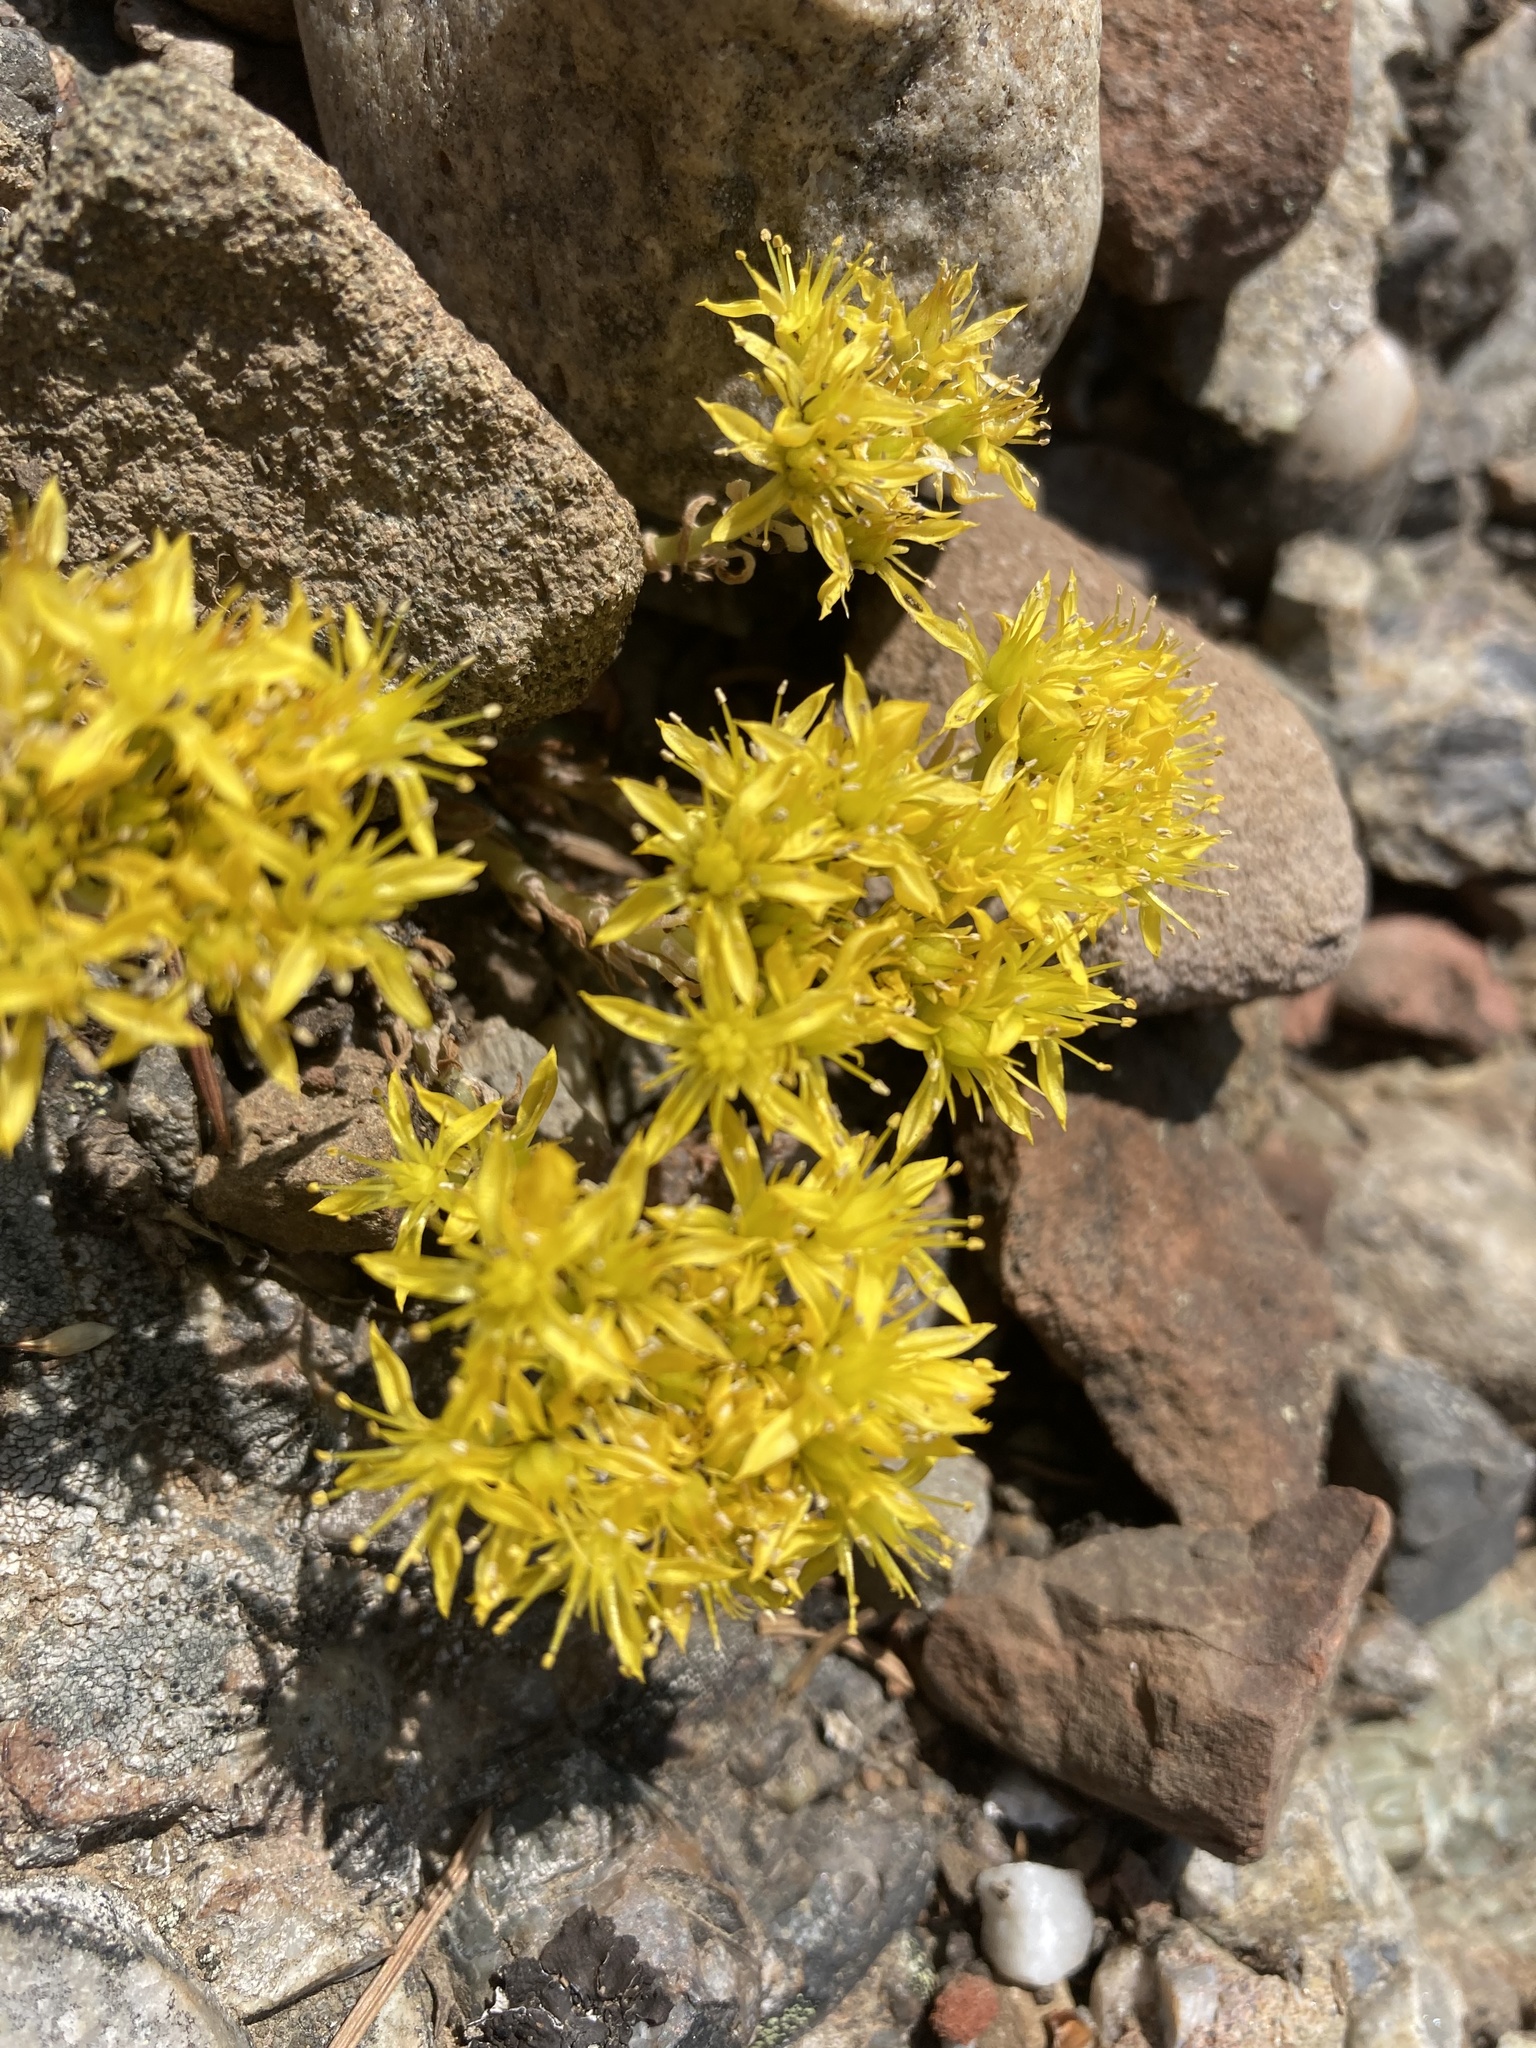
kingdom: Plantae
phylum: Tracheophyta
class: Magnoliopsida
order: Saxifragales
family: Crassulaceae
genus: Sedum
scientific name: Sedum lanceolatum
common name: Common stonecrop
